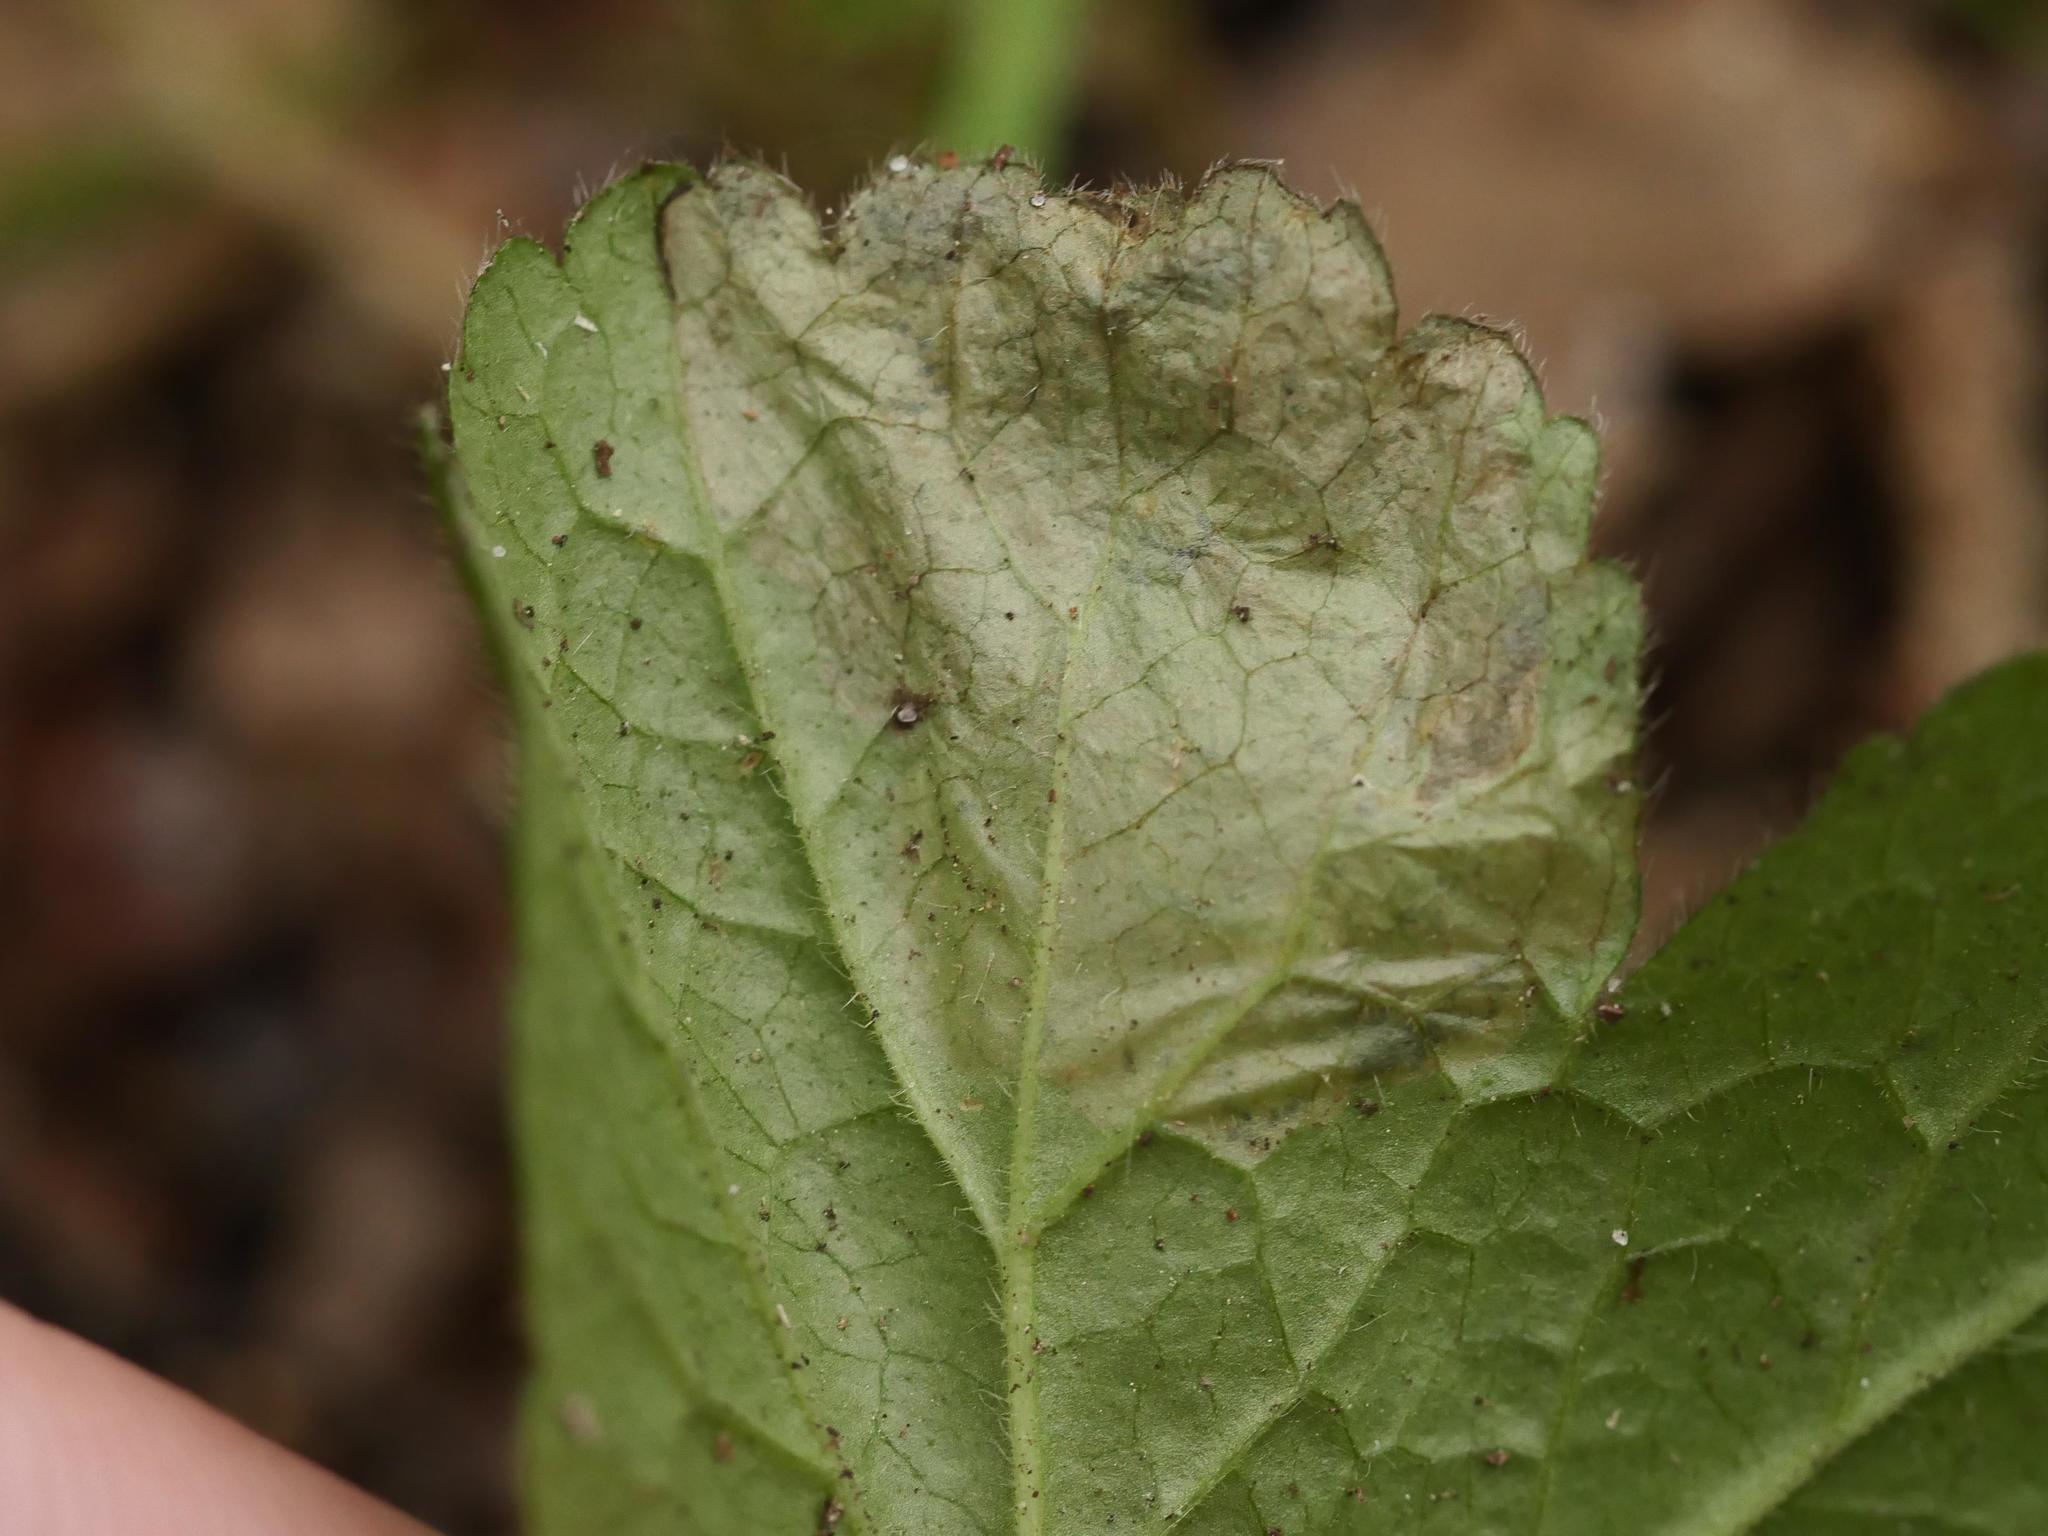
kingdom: Animalia
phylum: Arthropoda
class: Insecta
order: Hymenoptera
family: Tenthredinidae
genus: Metallus
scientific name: Metallus lanceolatus
